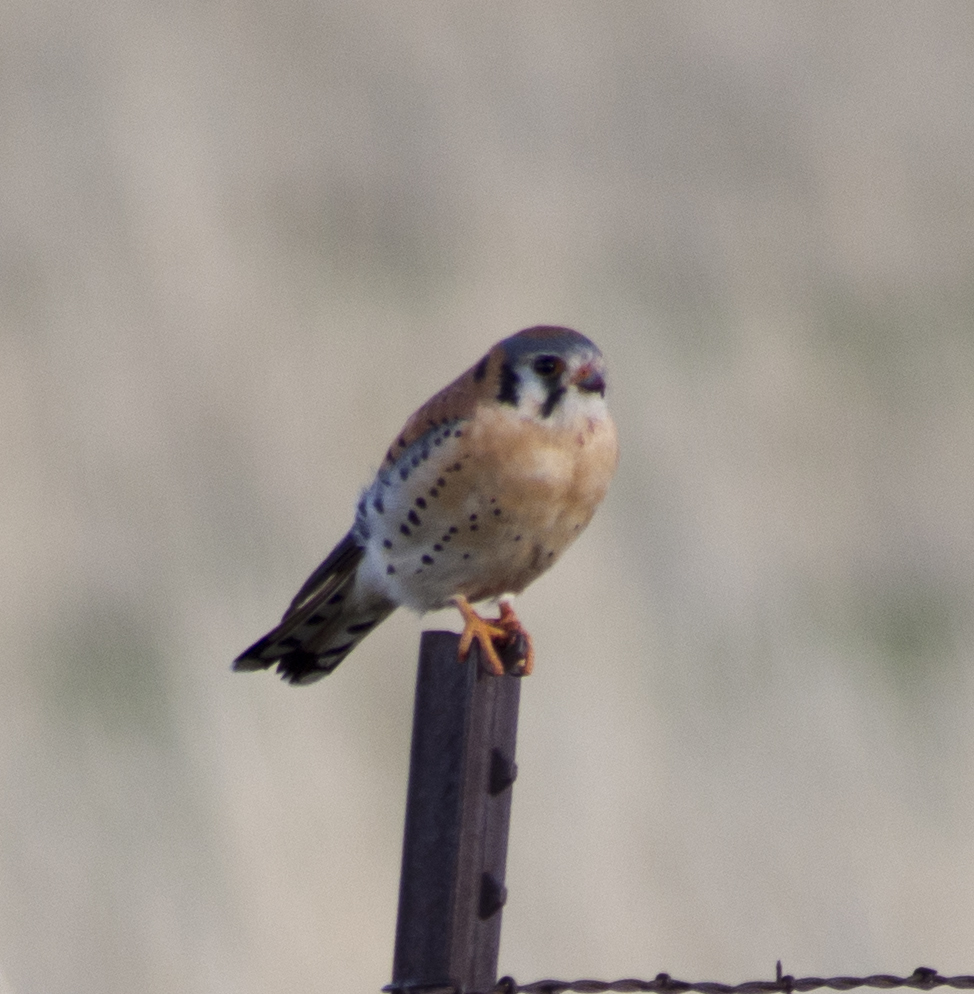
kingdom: Animalia
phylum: Chordata
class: Aves
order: Falconiformes
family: Falconidae
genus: Falco
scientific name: Falco sparverius
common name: American kestrel
